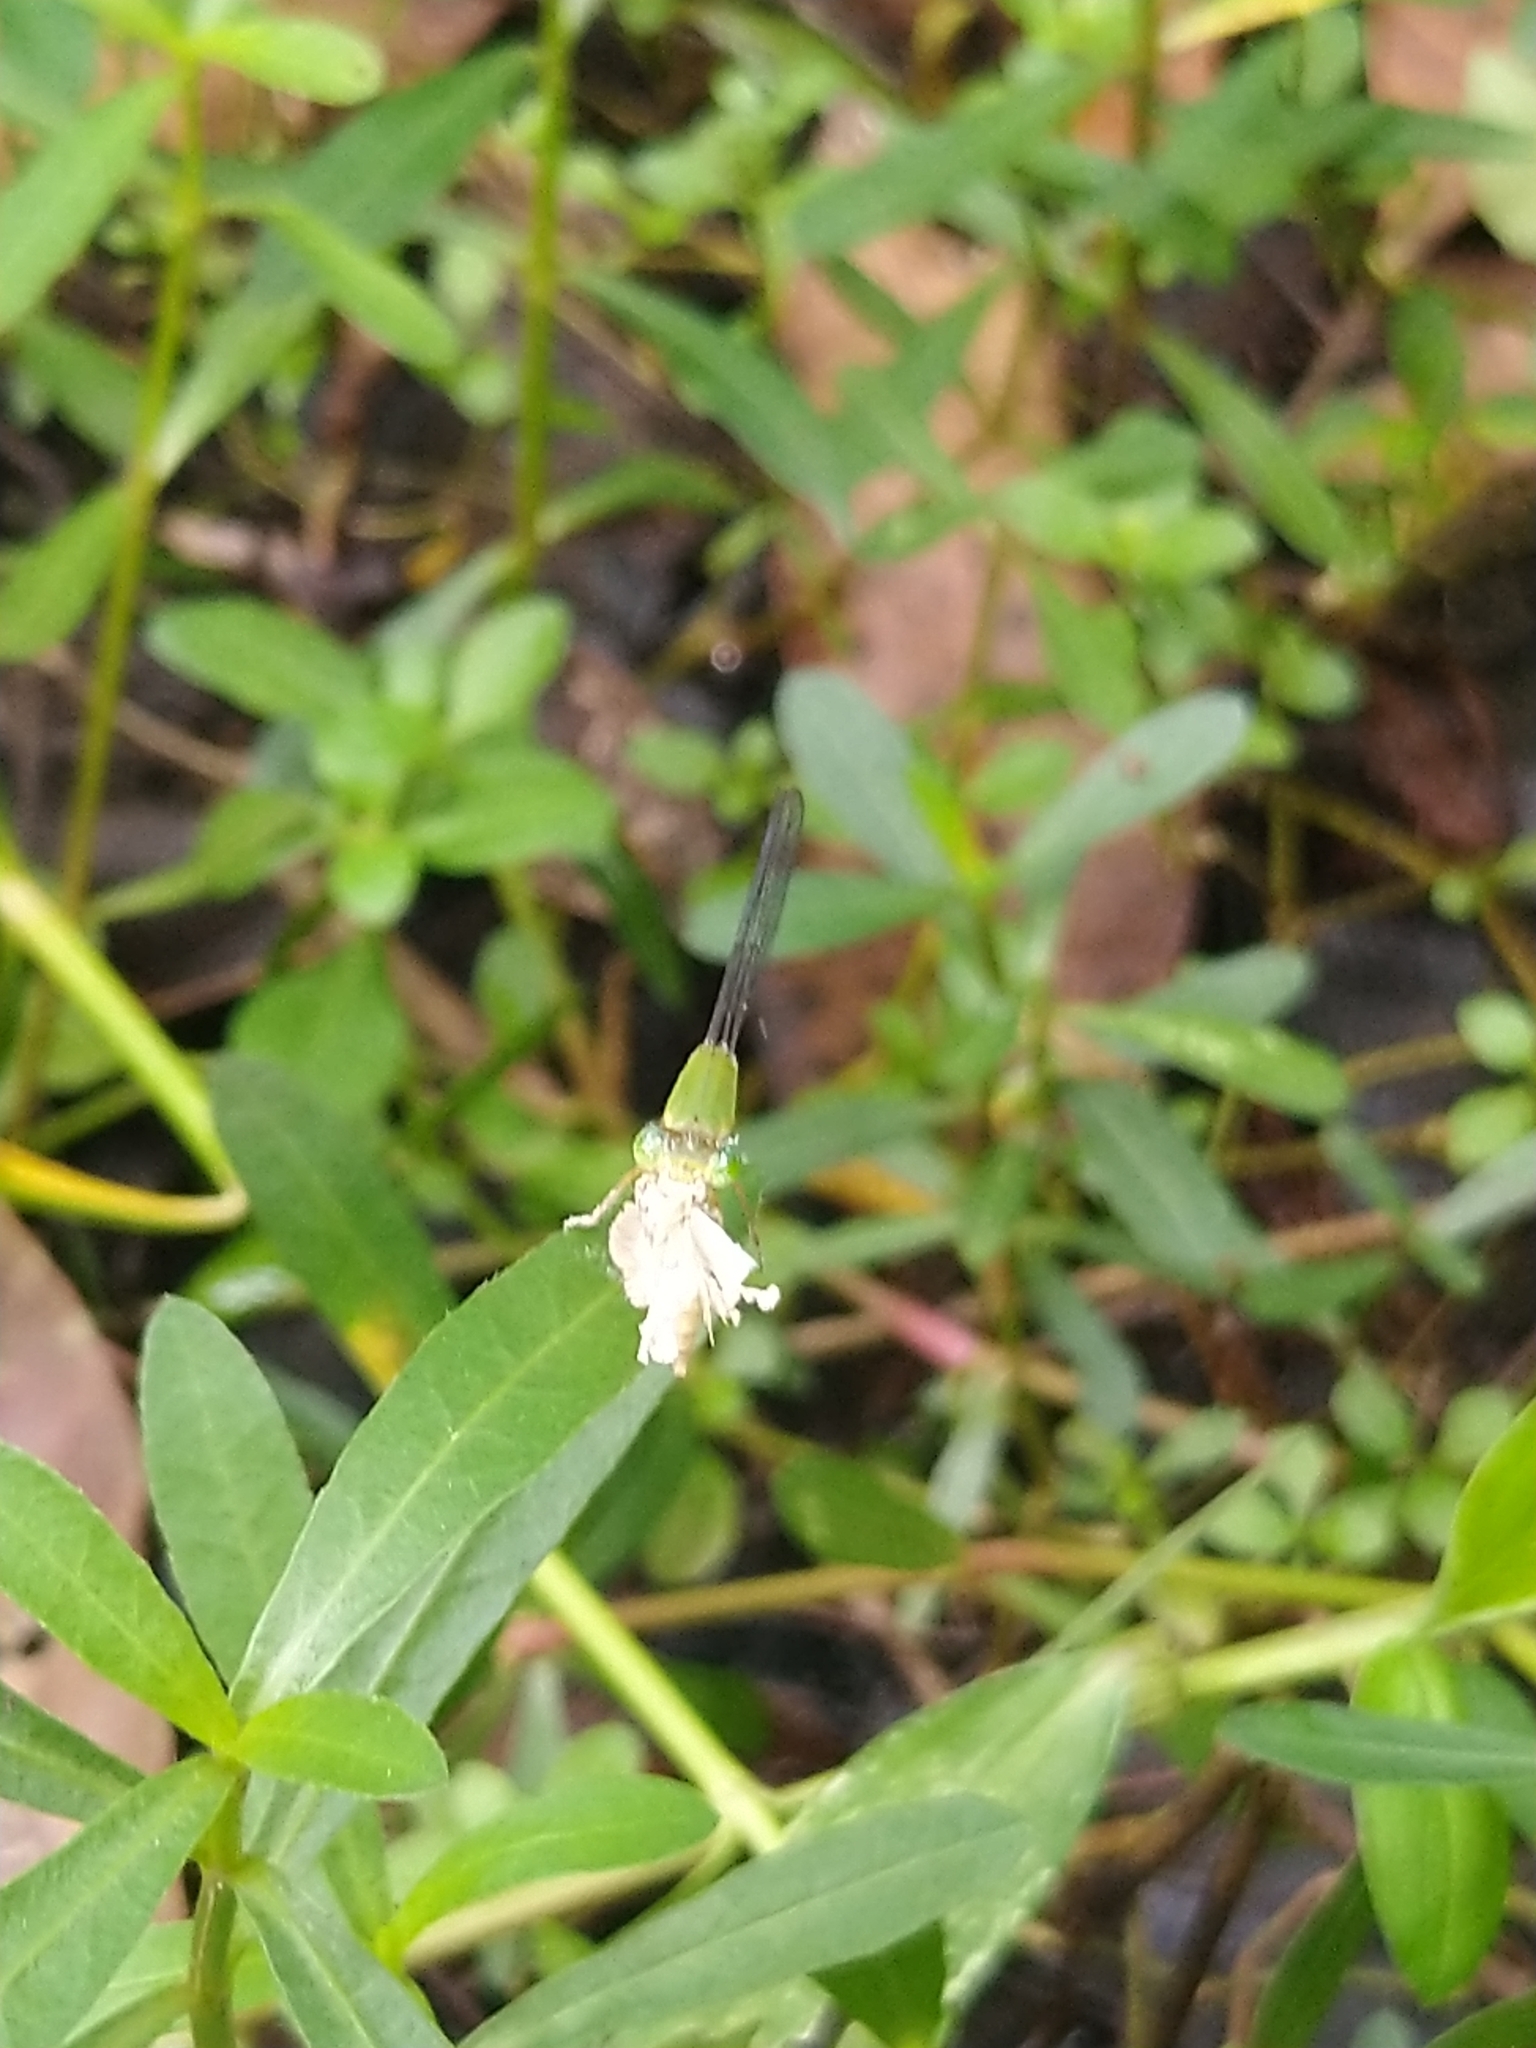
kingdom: Animalia
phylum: Arthropoda
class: Insecta
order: Odonata
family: Coenagrionidae
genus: Ceriagrion
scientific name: Ceriagrion coromandelianum
